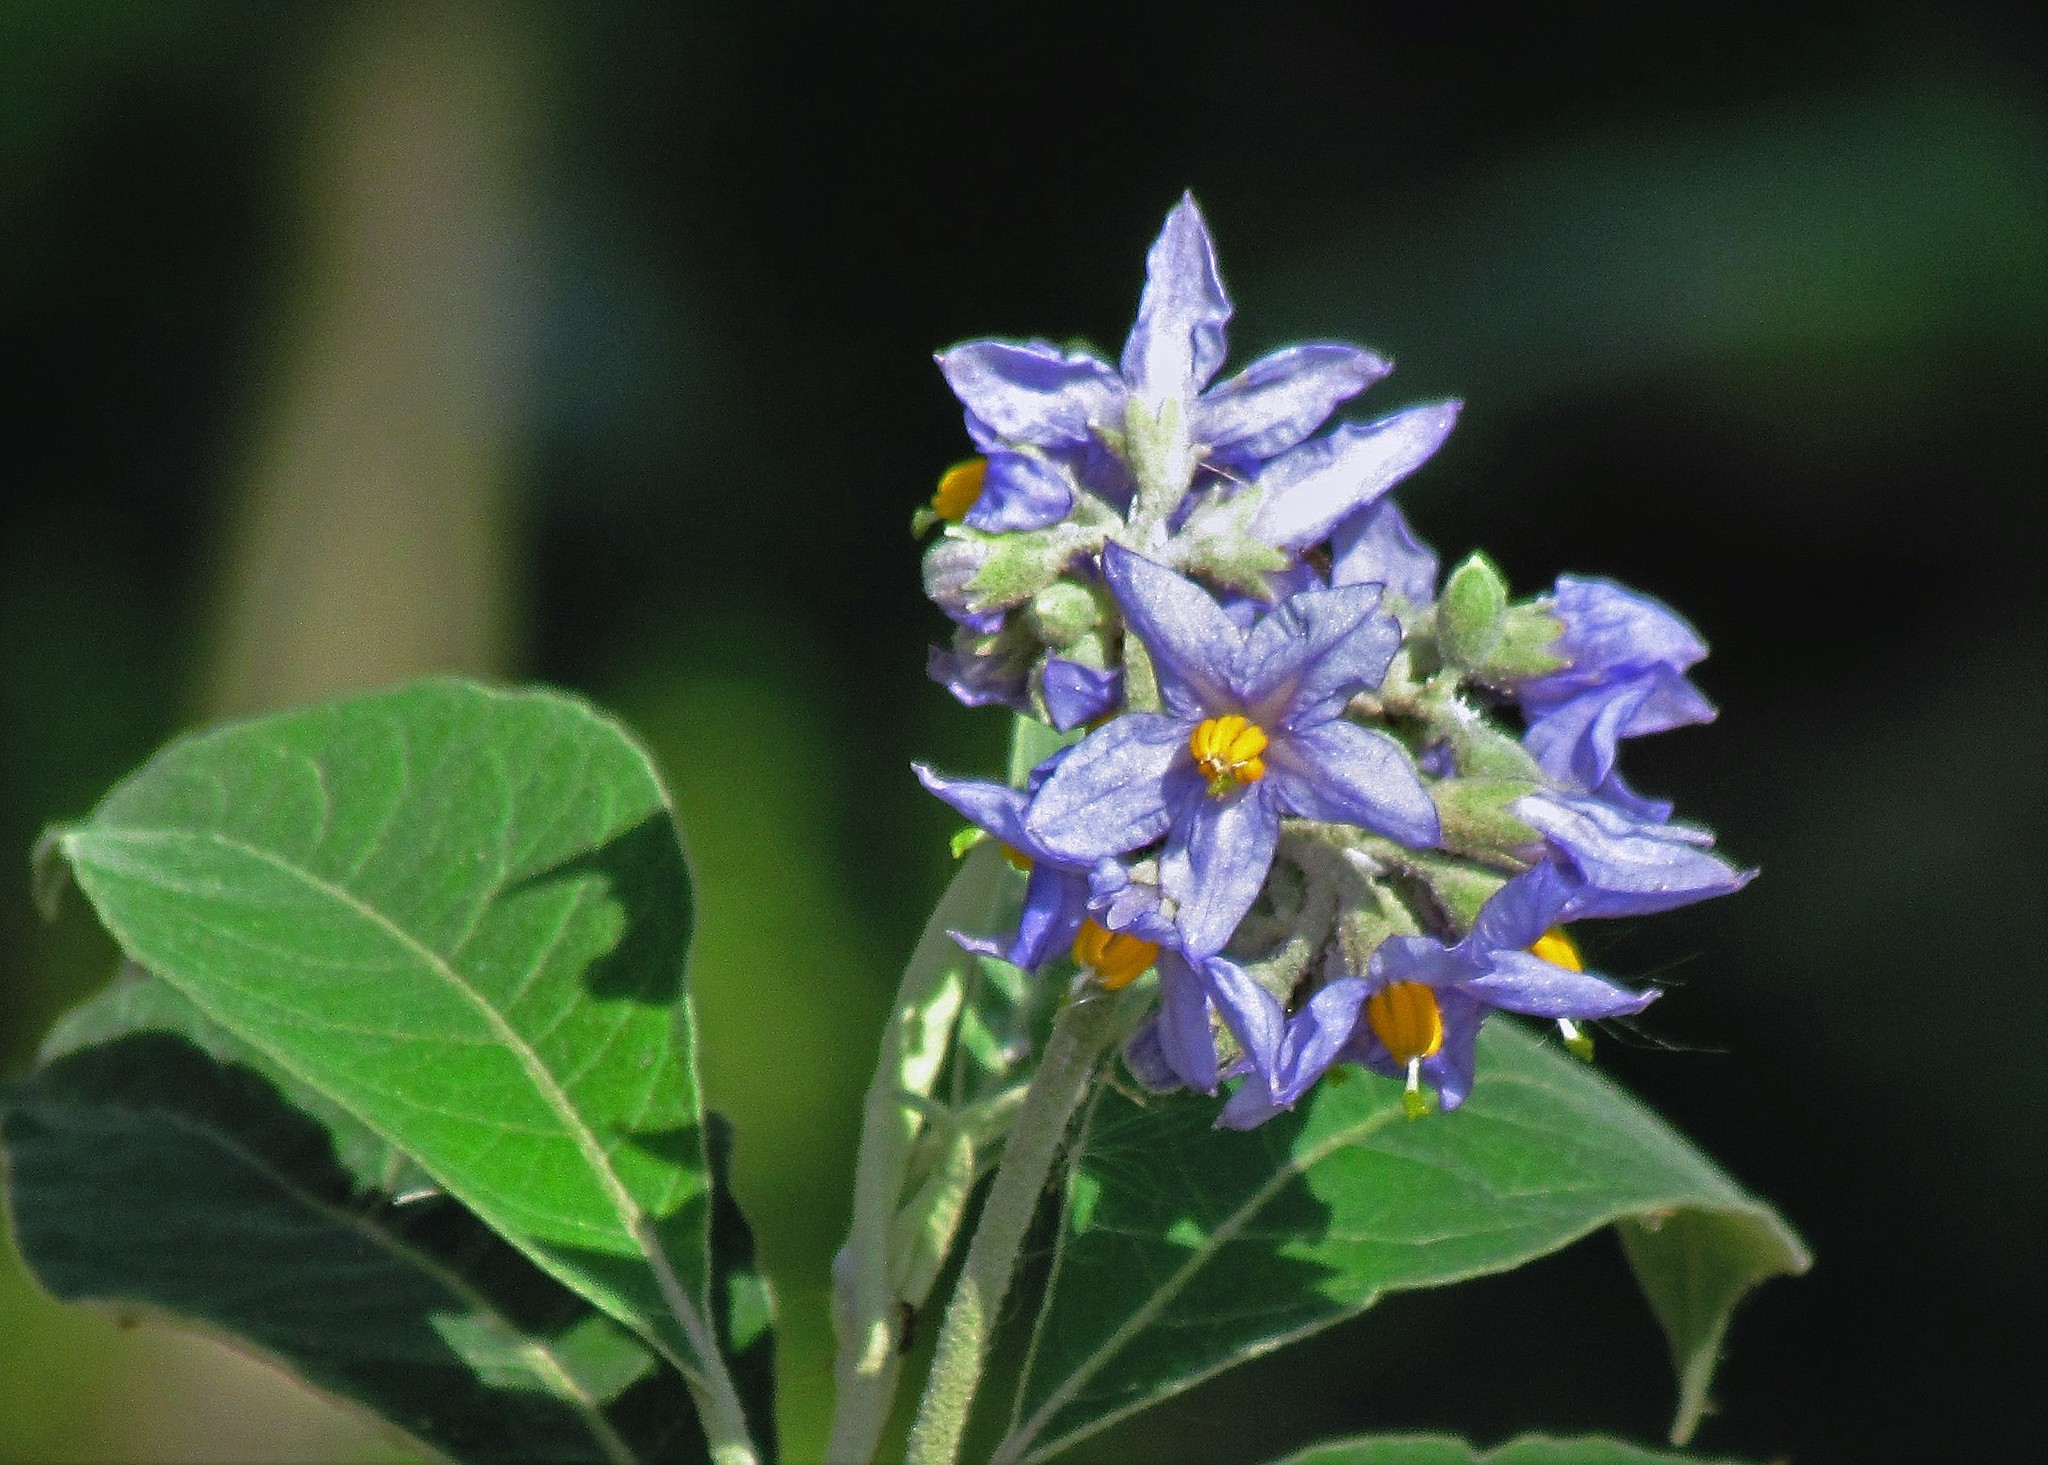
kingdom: Plantae
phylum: Tracheophyta
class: Magnoliopsida
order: Solanales
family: Solanaceae
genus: Solanum
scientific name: Solanum granulosoleprosum
